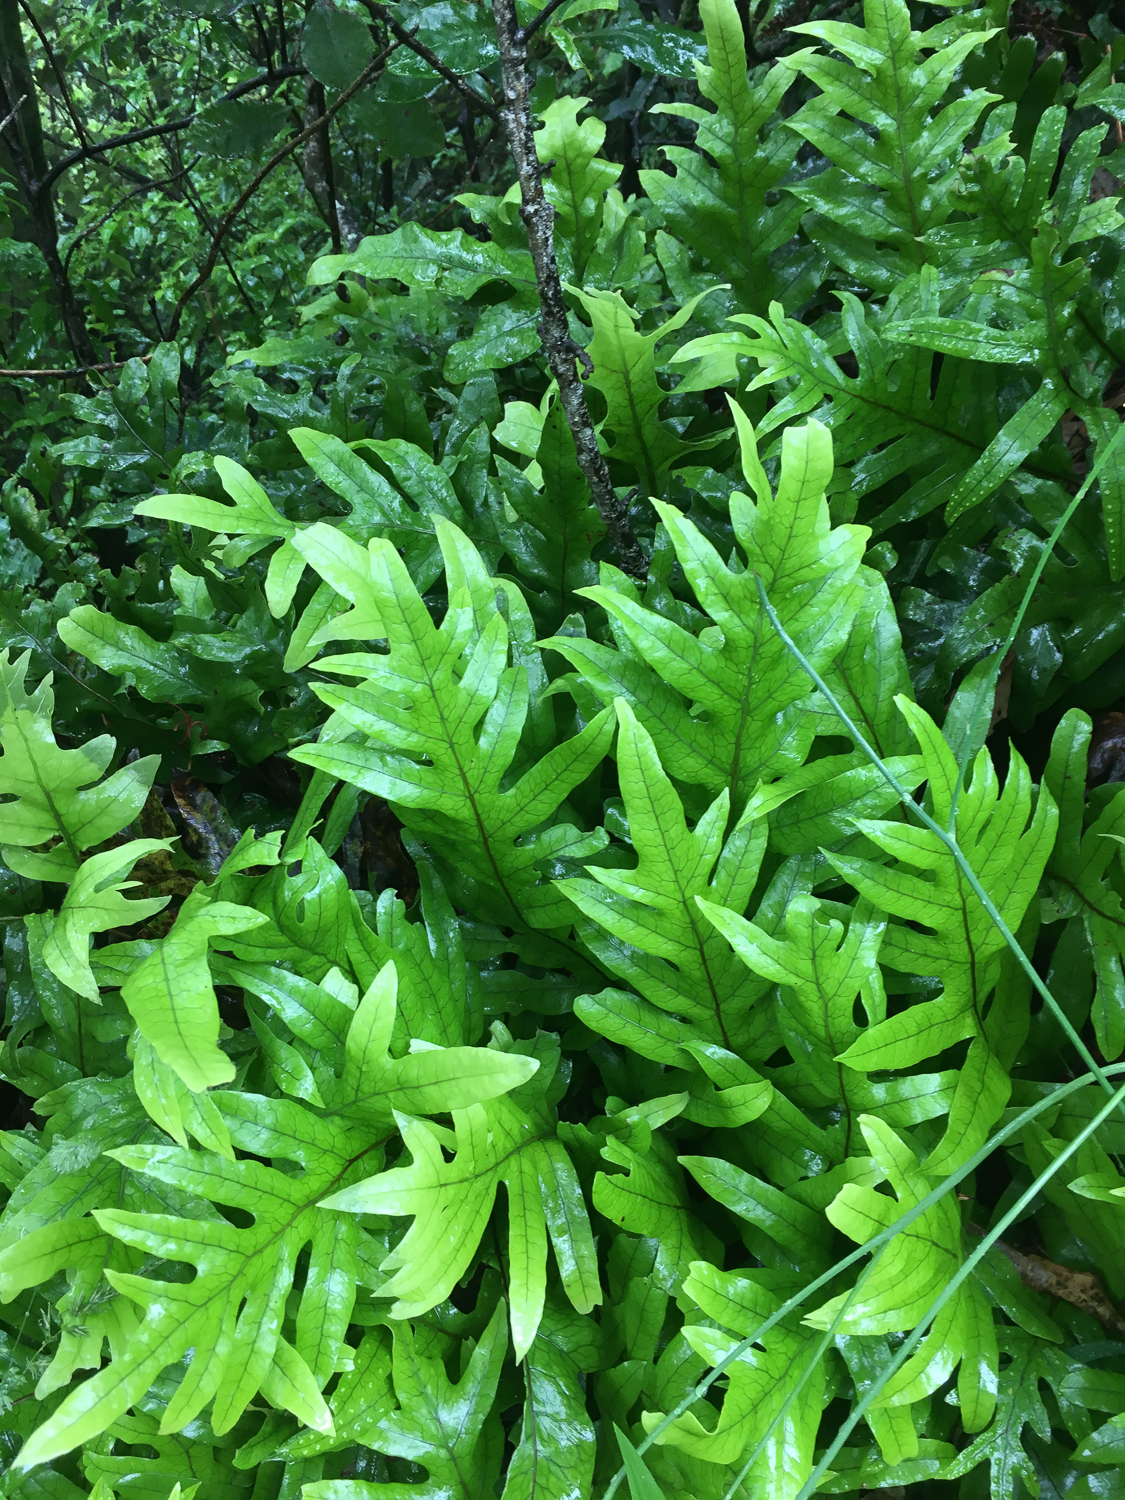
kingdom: Plantae
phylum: Tracheophyta
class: Polypodiopsida
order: Polypodiales
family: Polypodiaceae
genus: Lecanopteris
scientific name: Lecanopteris pustulata
